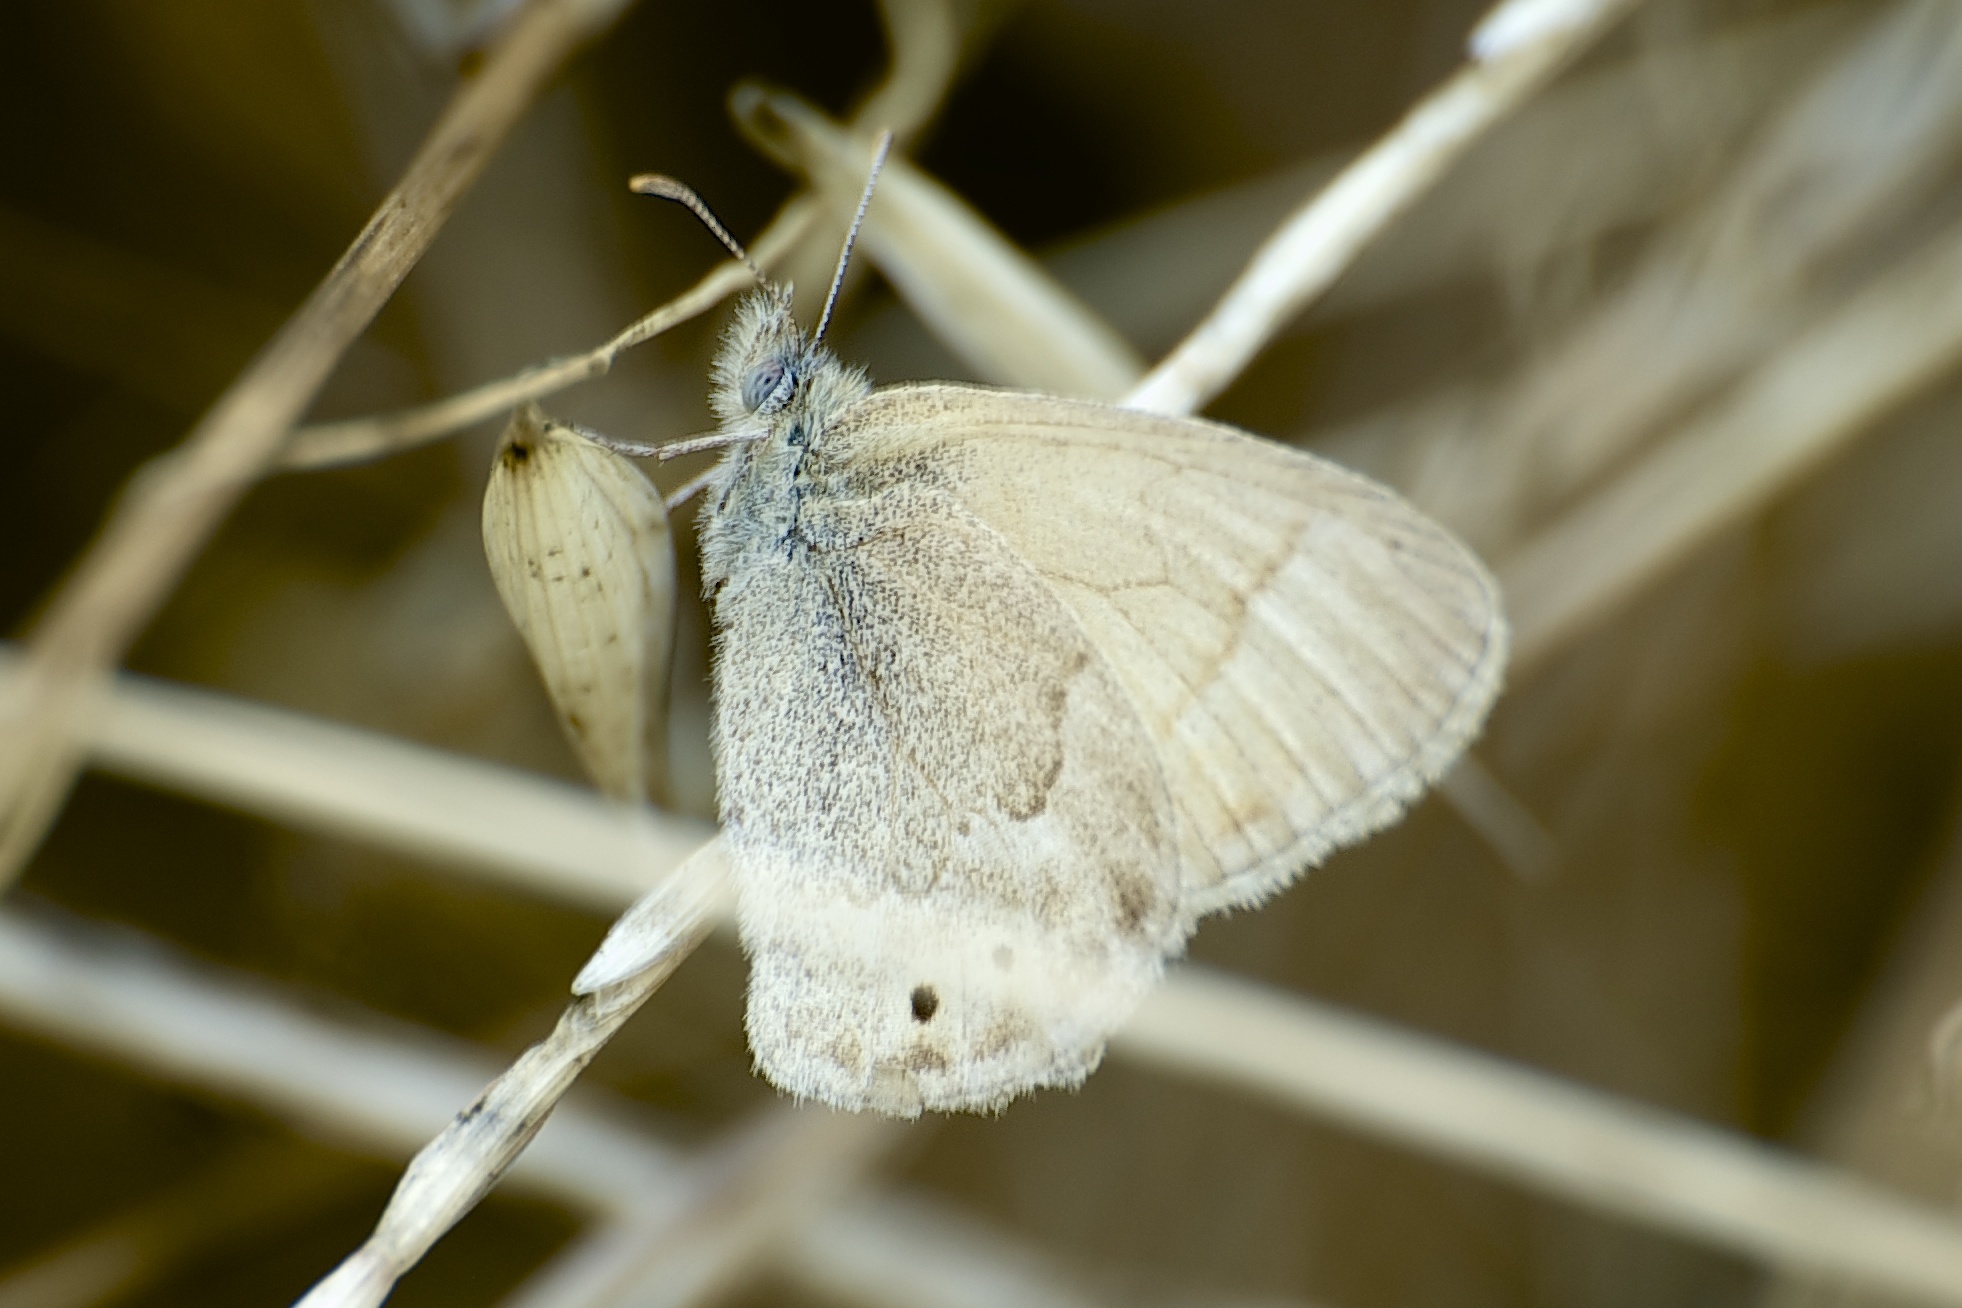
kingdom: Animalia
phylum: Arthropoda
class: Insecta
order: Lepidoptera
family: Nymphalidae
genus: Coenonympha
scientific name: Coenonympha california
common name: Common ringlet
